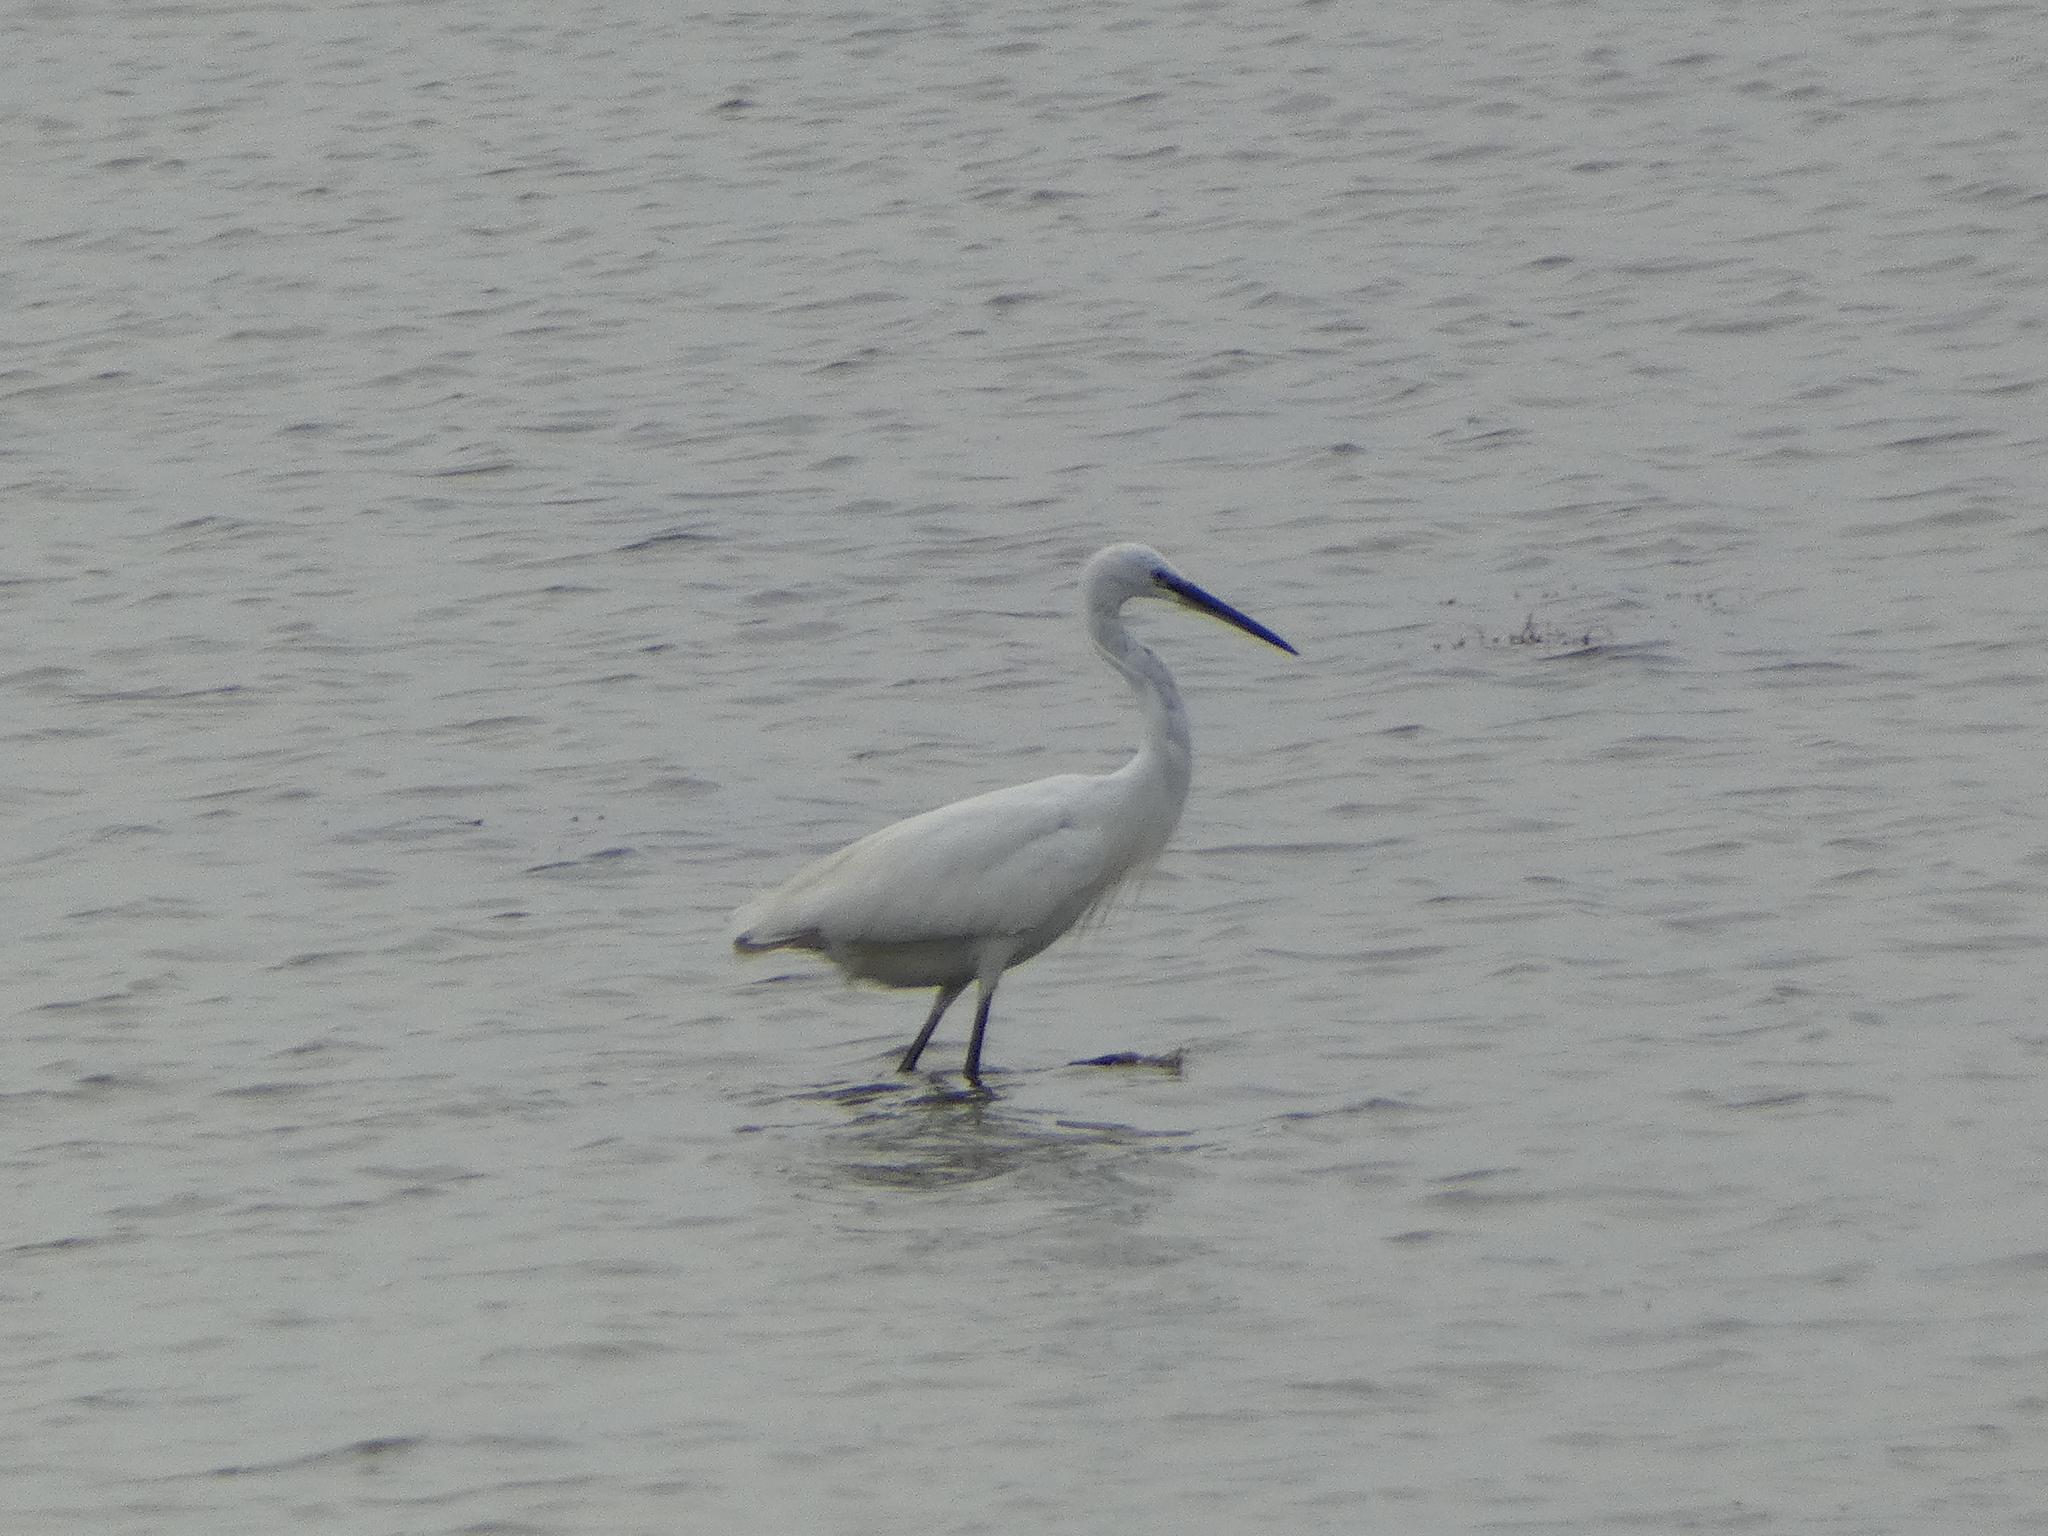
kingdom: Animalia
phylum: Chordata
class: Aves
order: Pelecaniformes
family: Ardeidae
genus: Egretta
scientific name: Egretta garzetta
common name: Little egret
